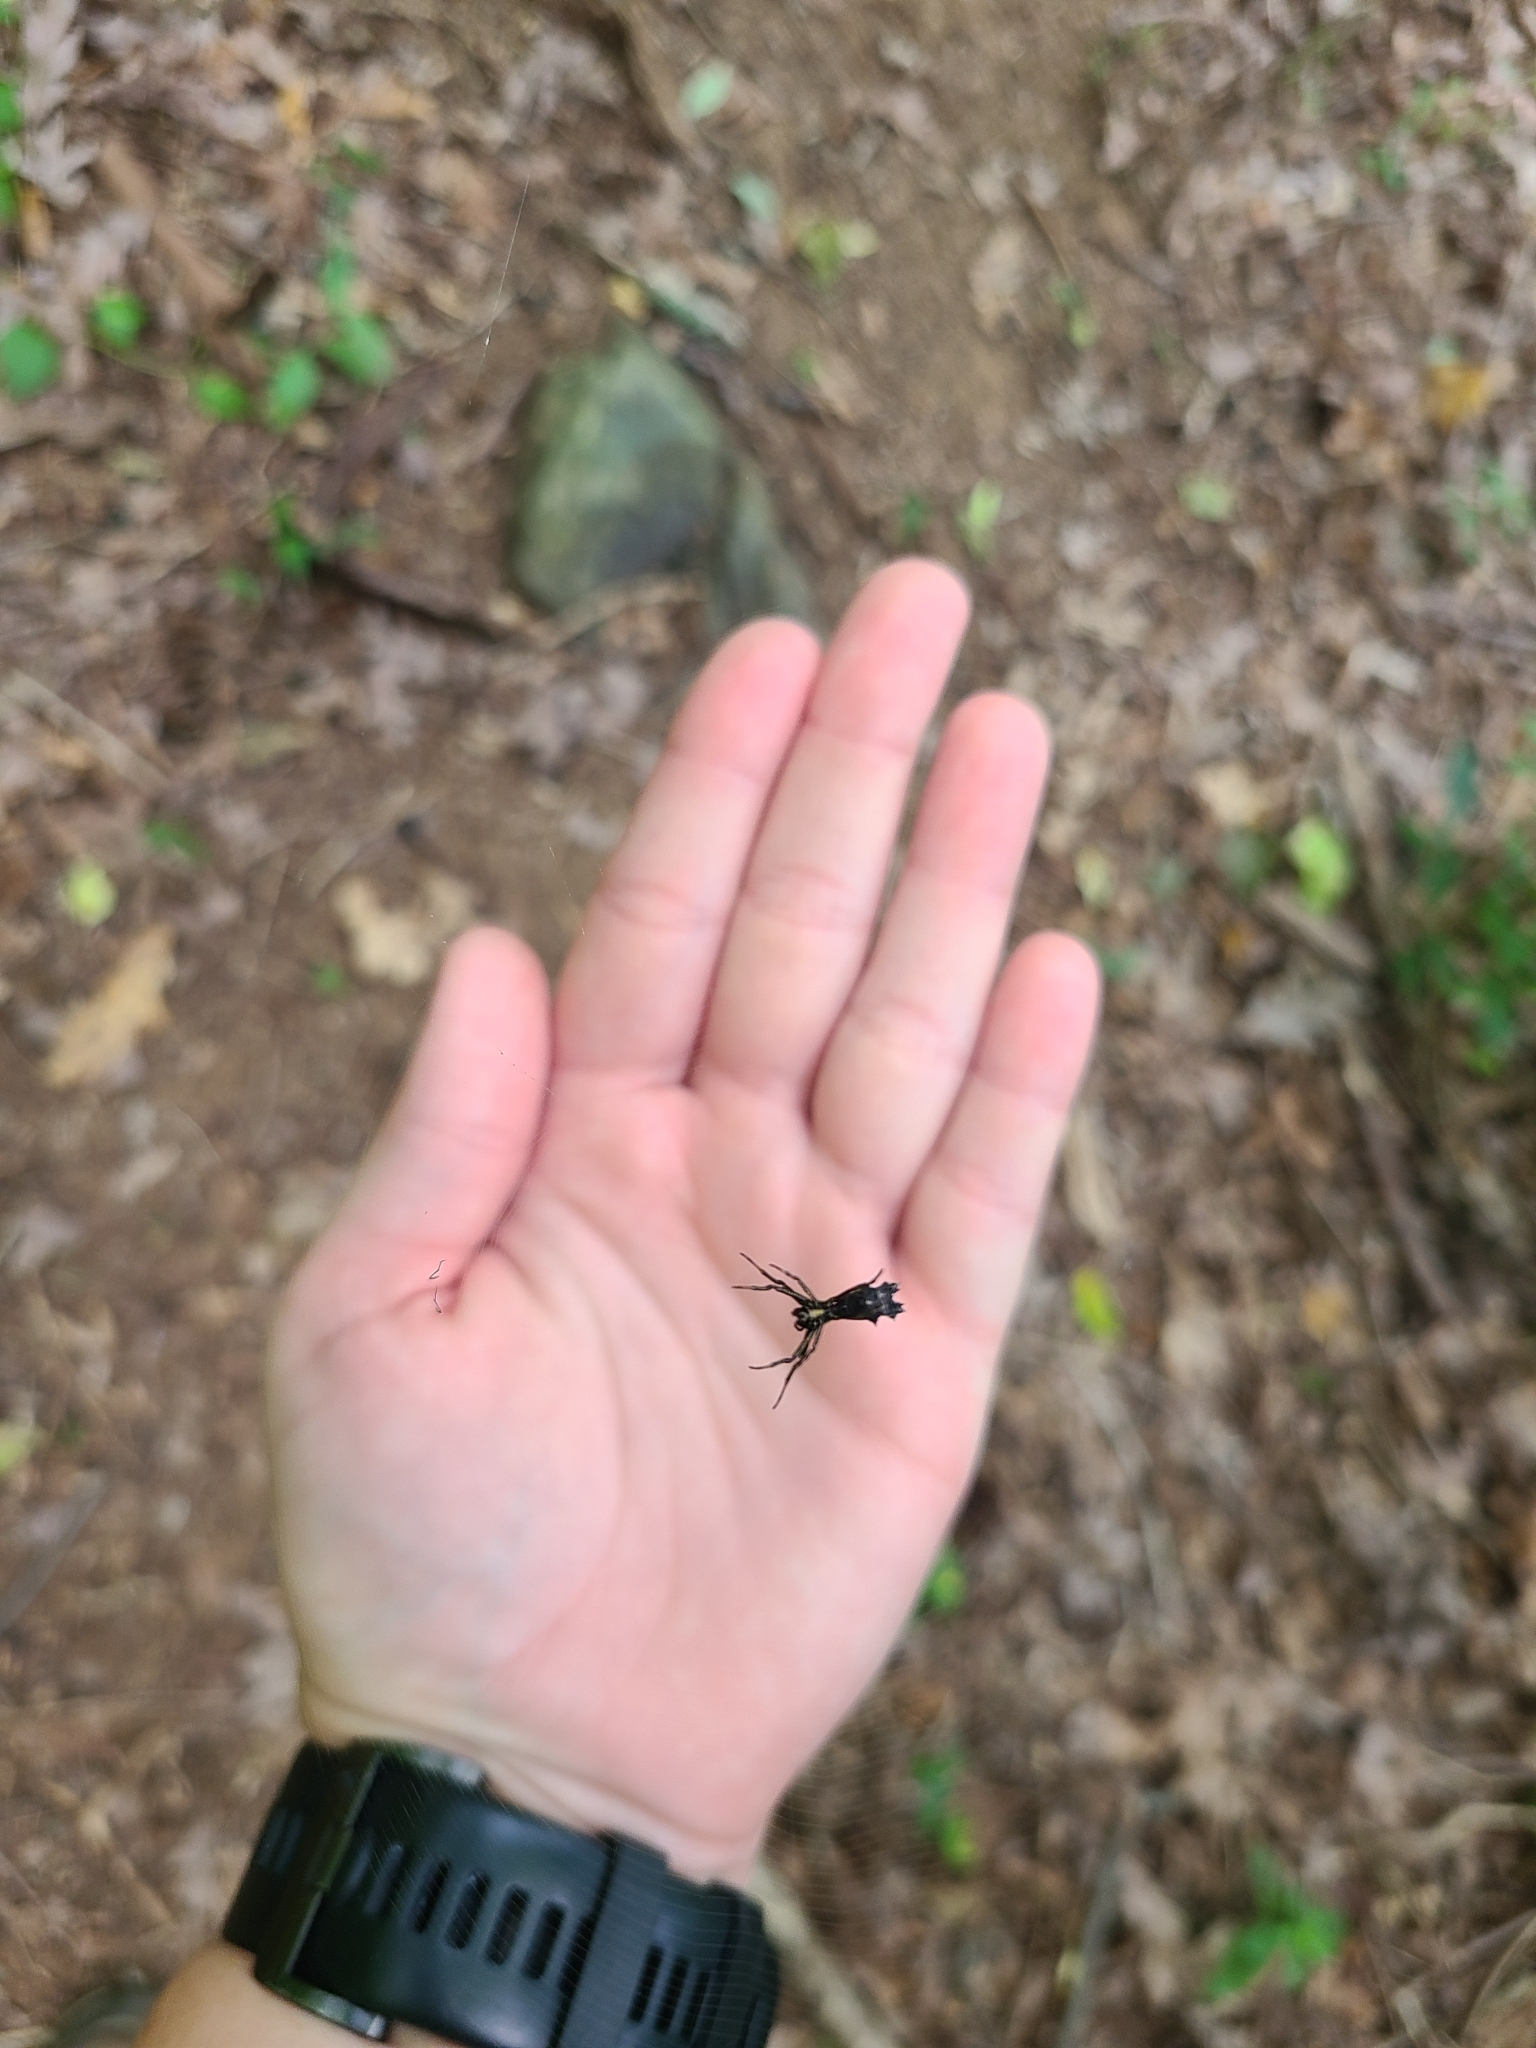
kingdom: Animalia
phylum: Arthropoda
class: Arachnida
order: Araneae
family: Araneidae
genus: Micrathena
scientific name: Micrathena gracilis
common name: Orb weavers
